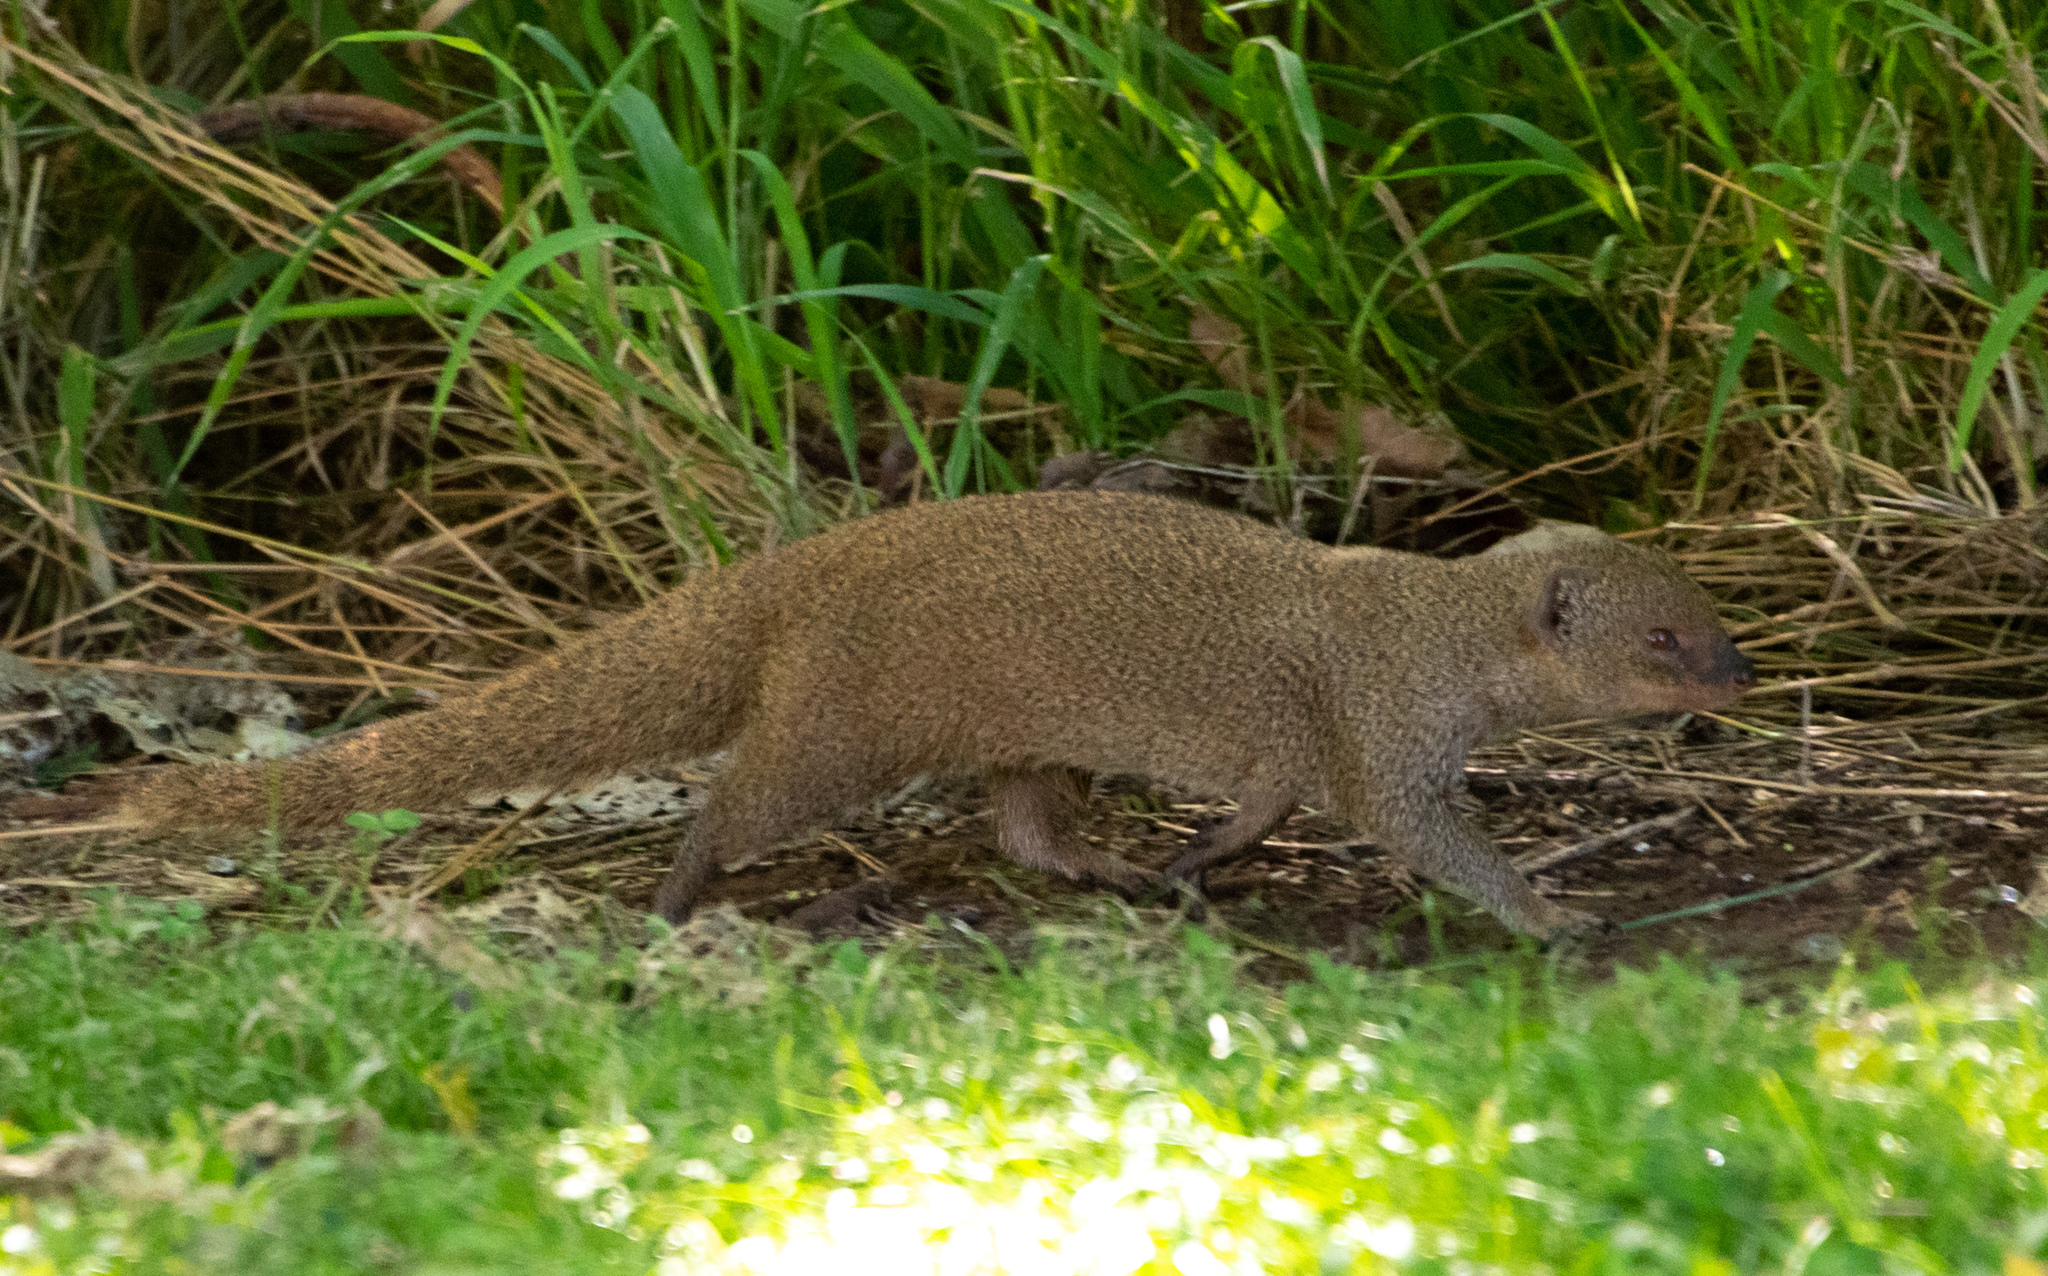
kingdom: Animalia
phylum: Chordata
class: Mammalia
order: Carnivora
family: Herpestidae
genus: Herpestes
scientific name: Herpestes javanicus
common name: Small asian mongoose
